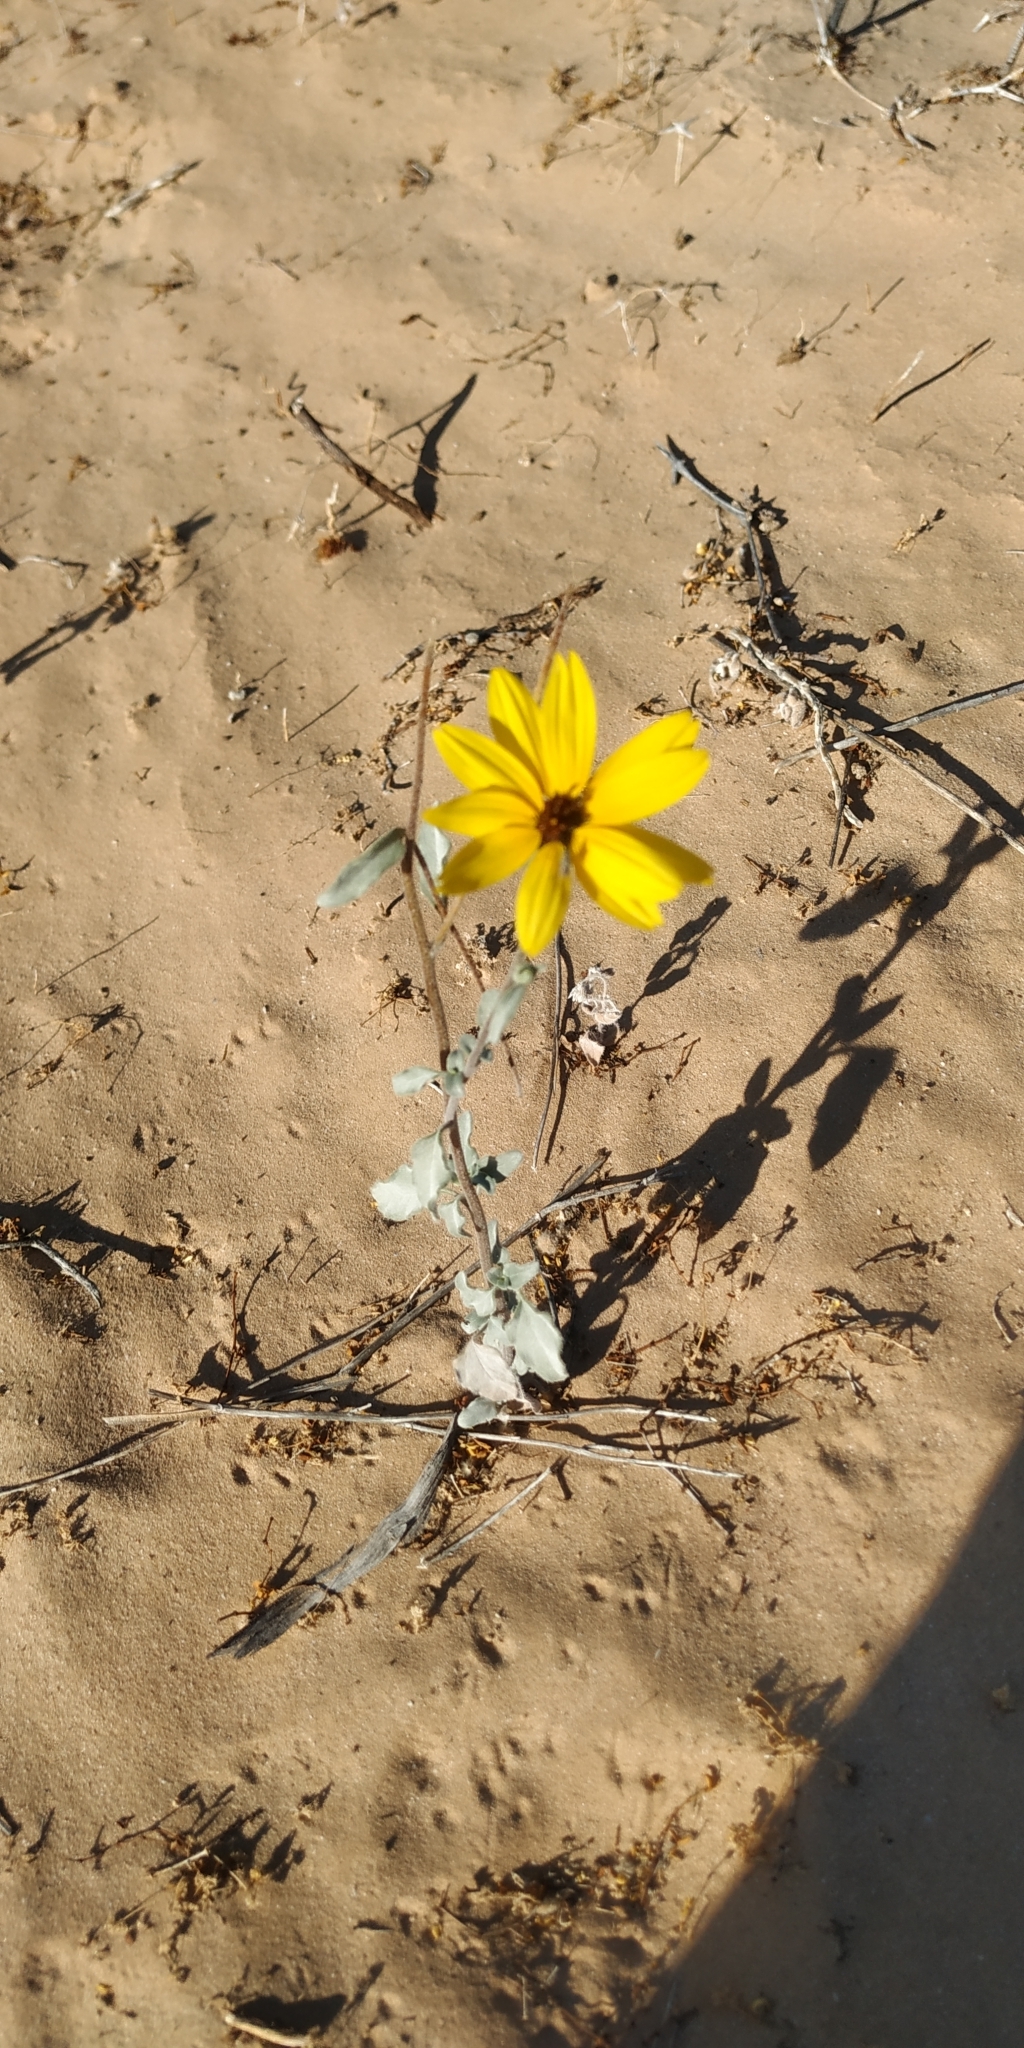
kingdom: Plantae
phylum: Tracheophyta
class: Magnoliopsida
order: Asterales
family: Asteraceae
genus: Helianthus
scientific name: Helianthus niveus
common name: Snowy sunflower
